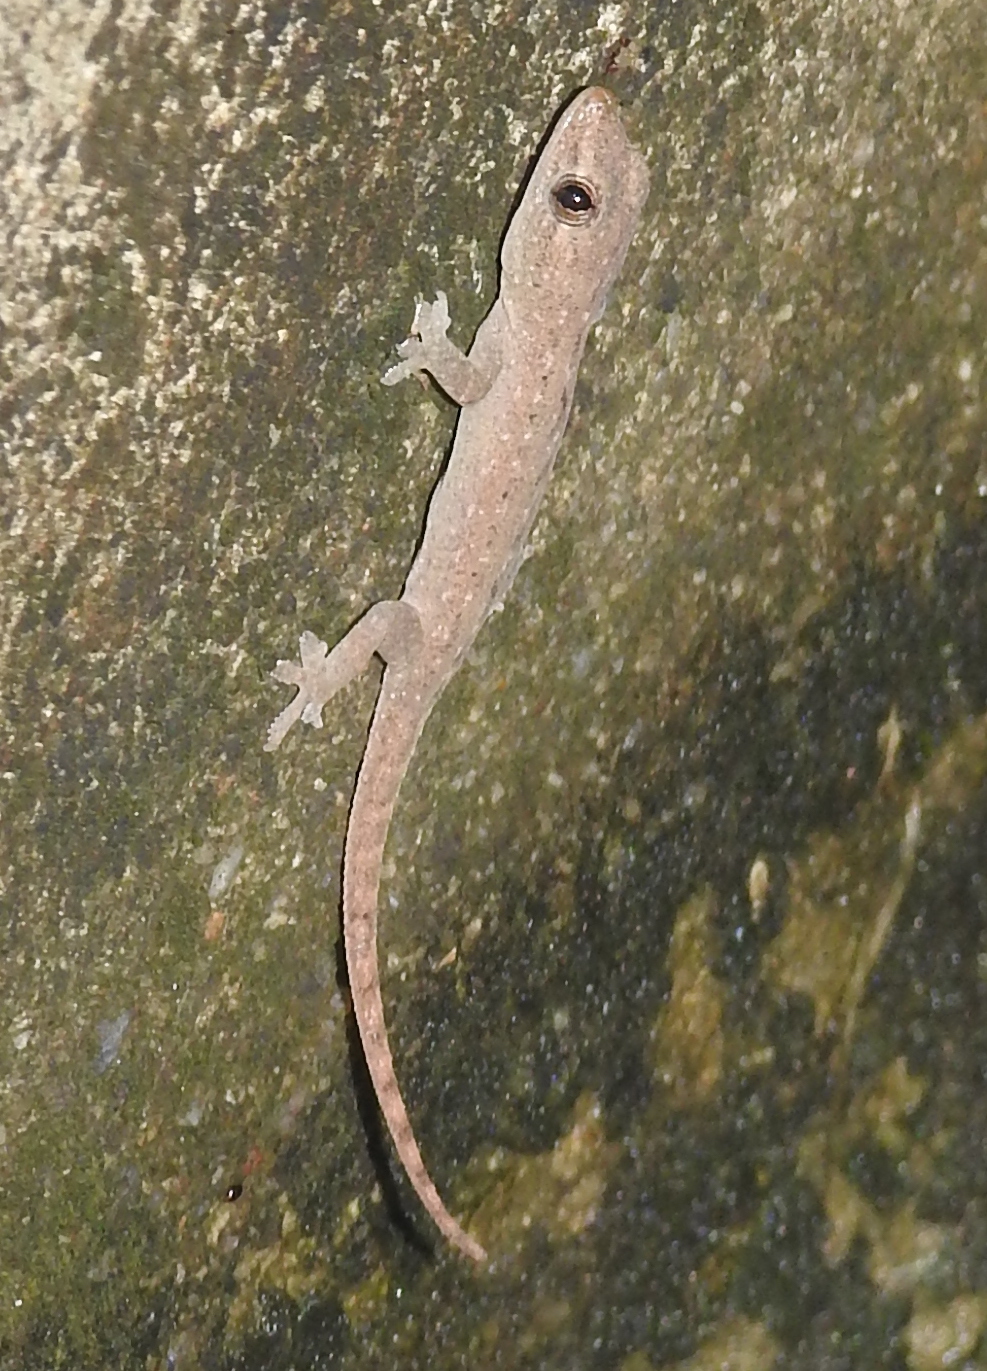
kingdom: Animalia
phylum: Chordata
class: Squamata
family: Gekkonidae
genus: Hemidactylus
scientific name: Hemidactylus frenatus
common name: Common house gecko
